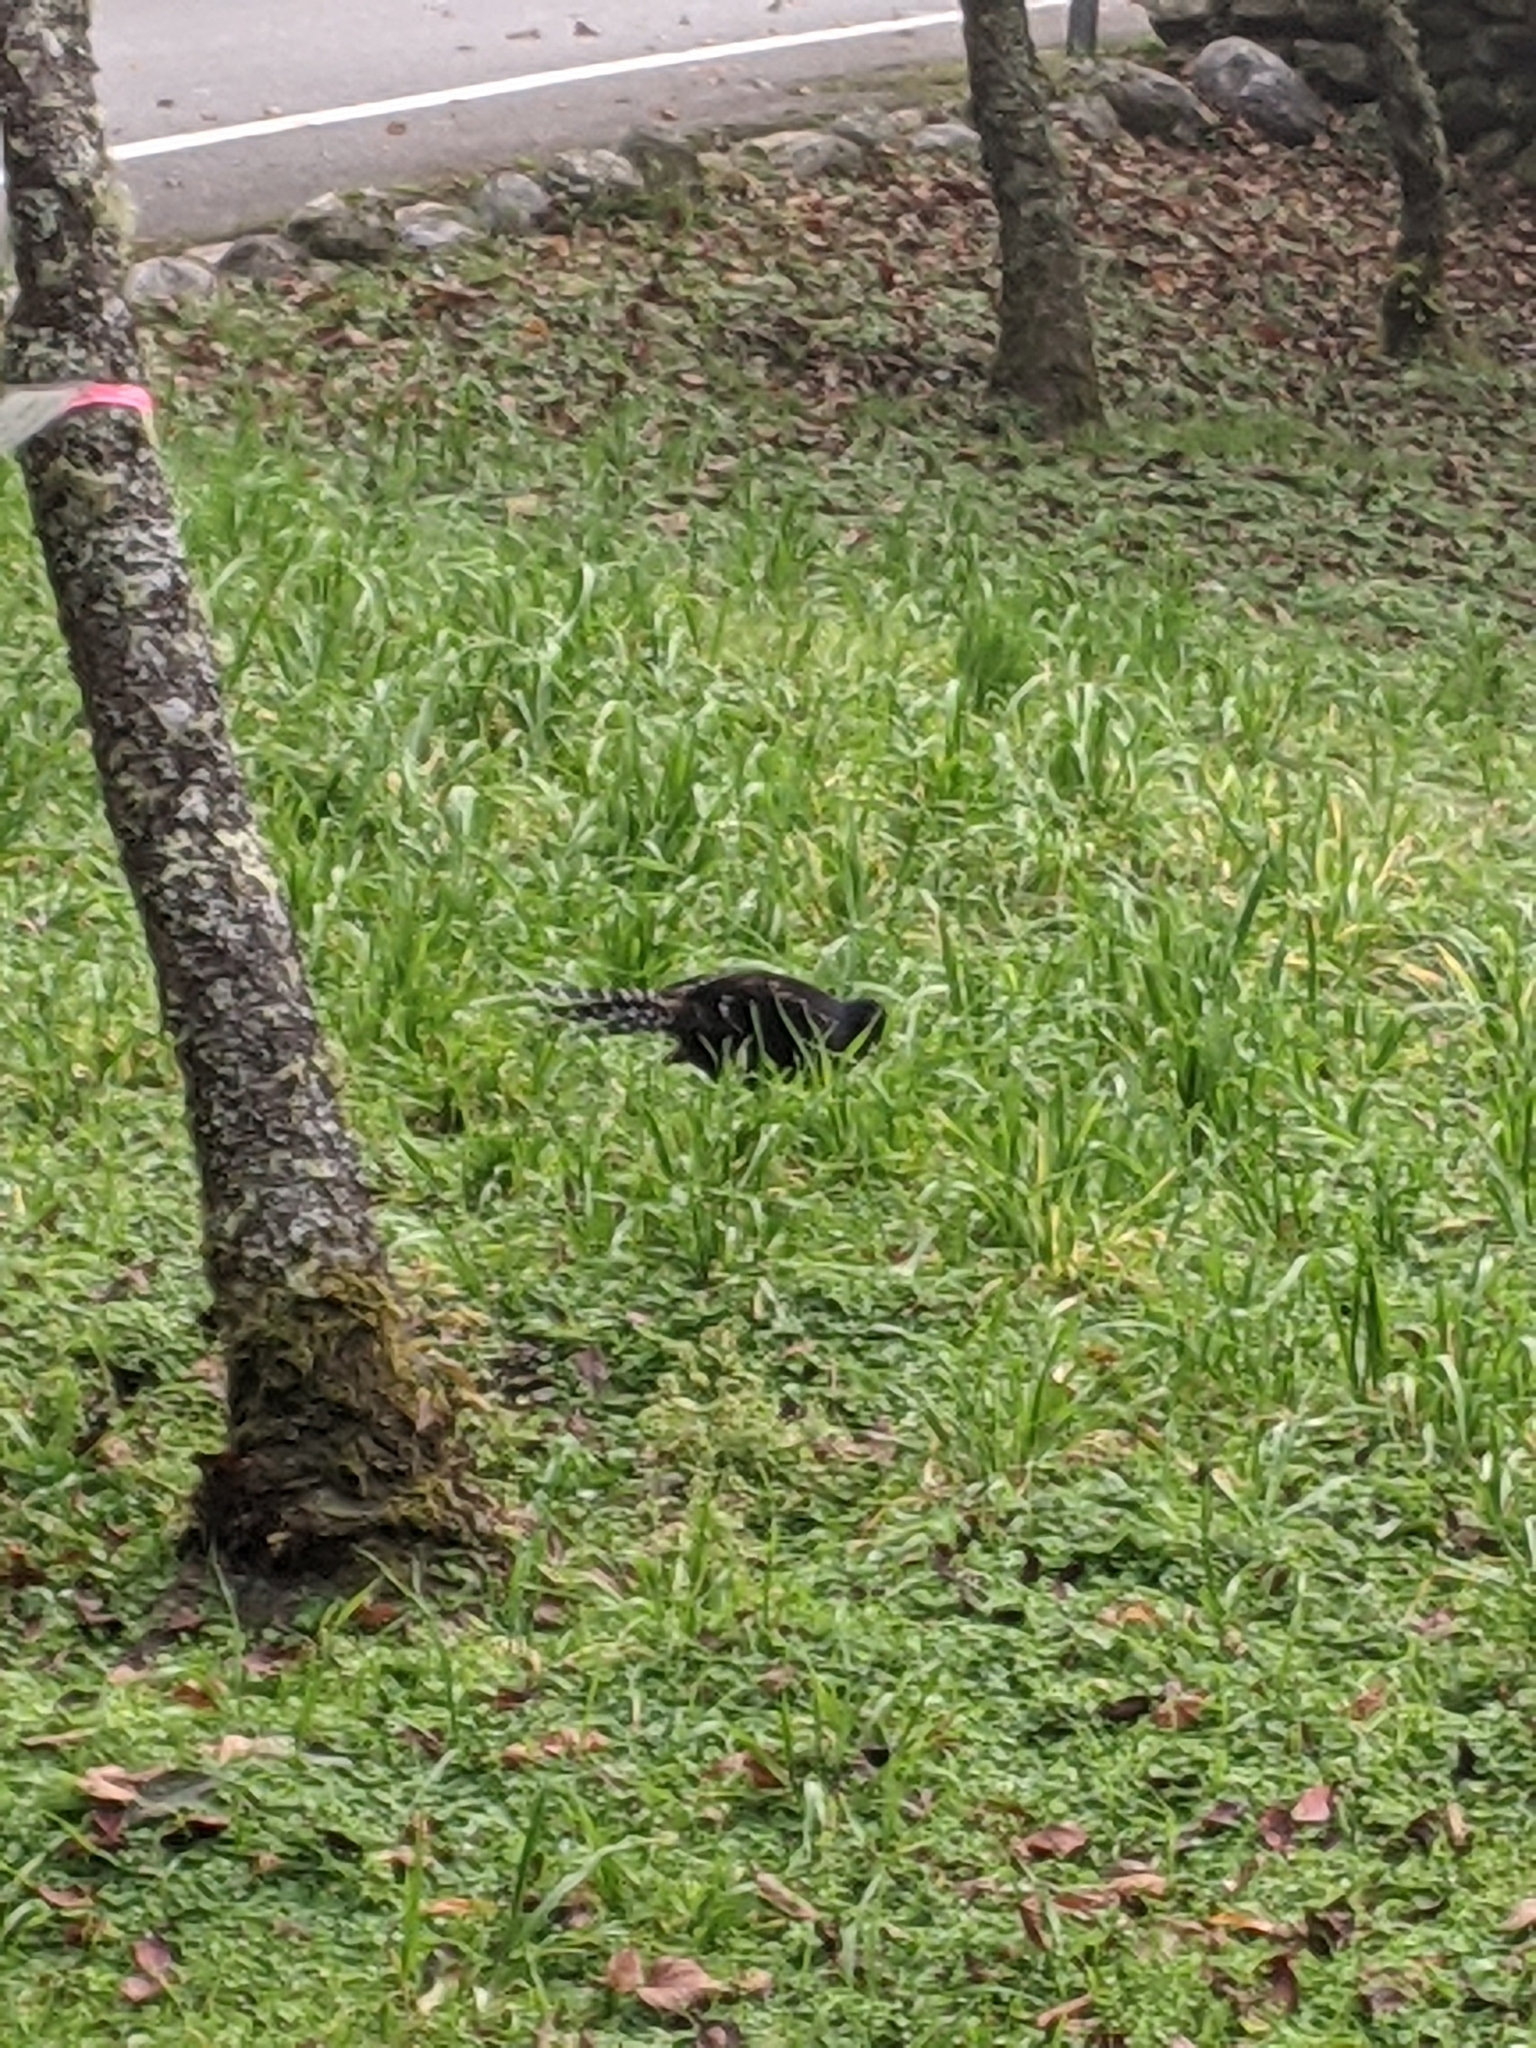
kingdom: Animalia
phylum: Chordata
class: Aves
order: Galliformes
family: Phasianidae
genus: Syrmaticus
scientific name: Syrmaticus mikado
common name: Mikado pheasant
